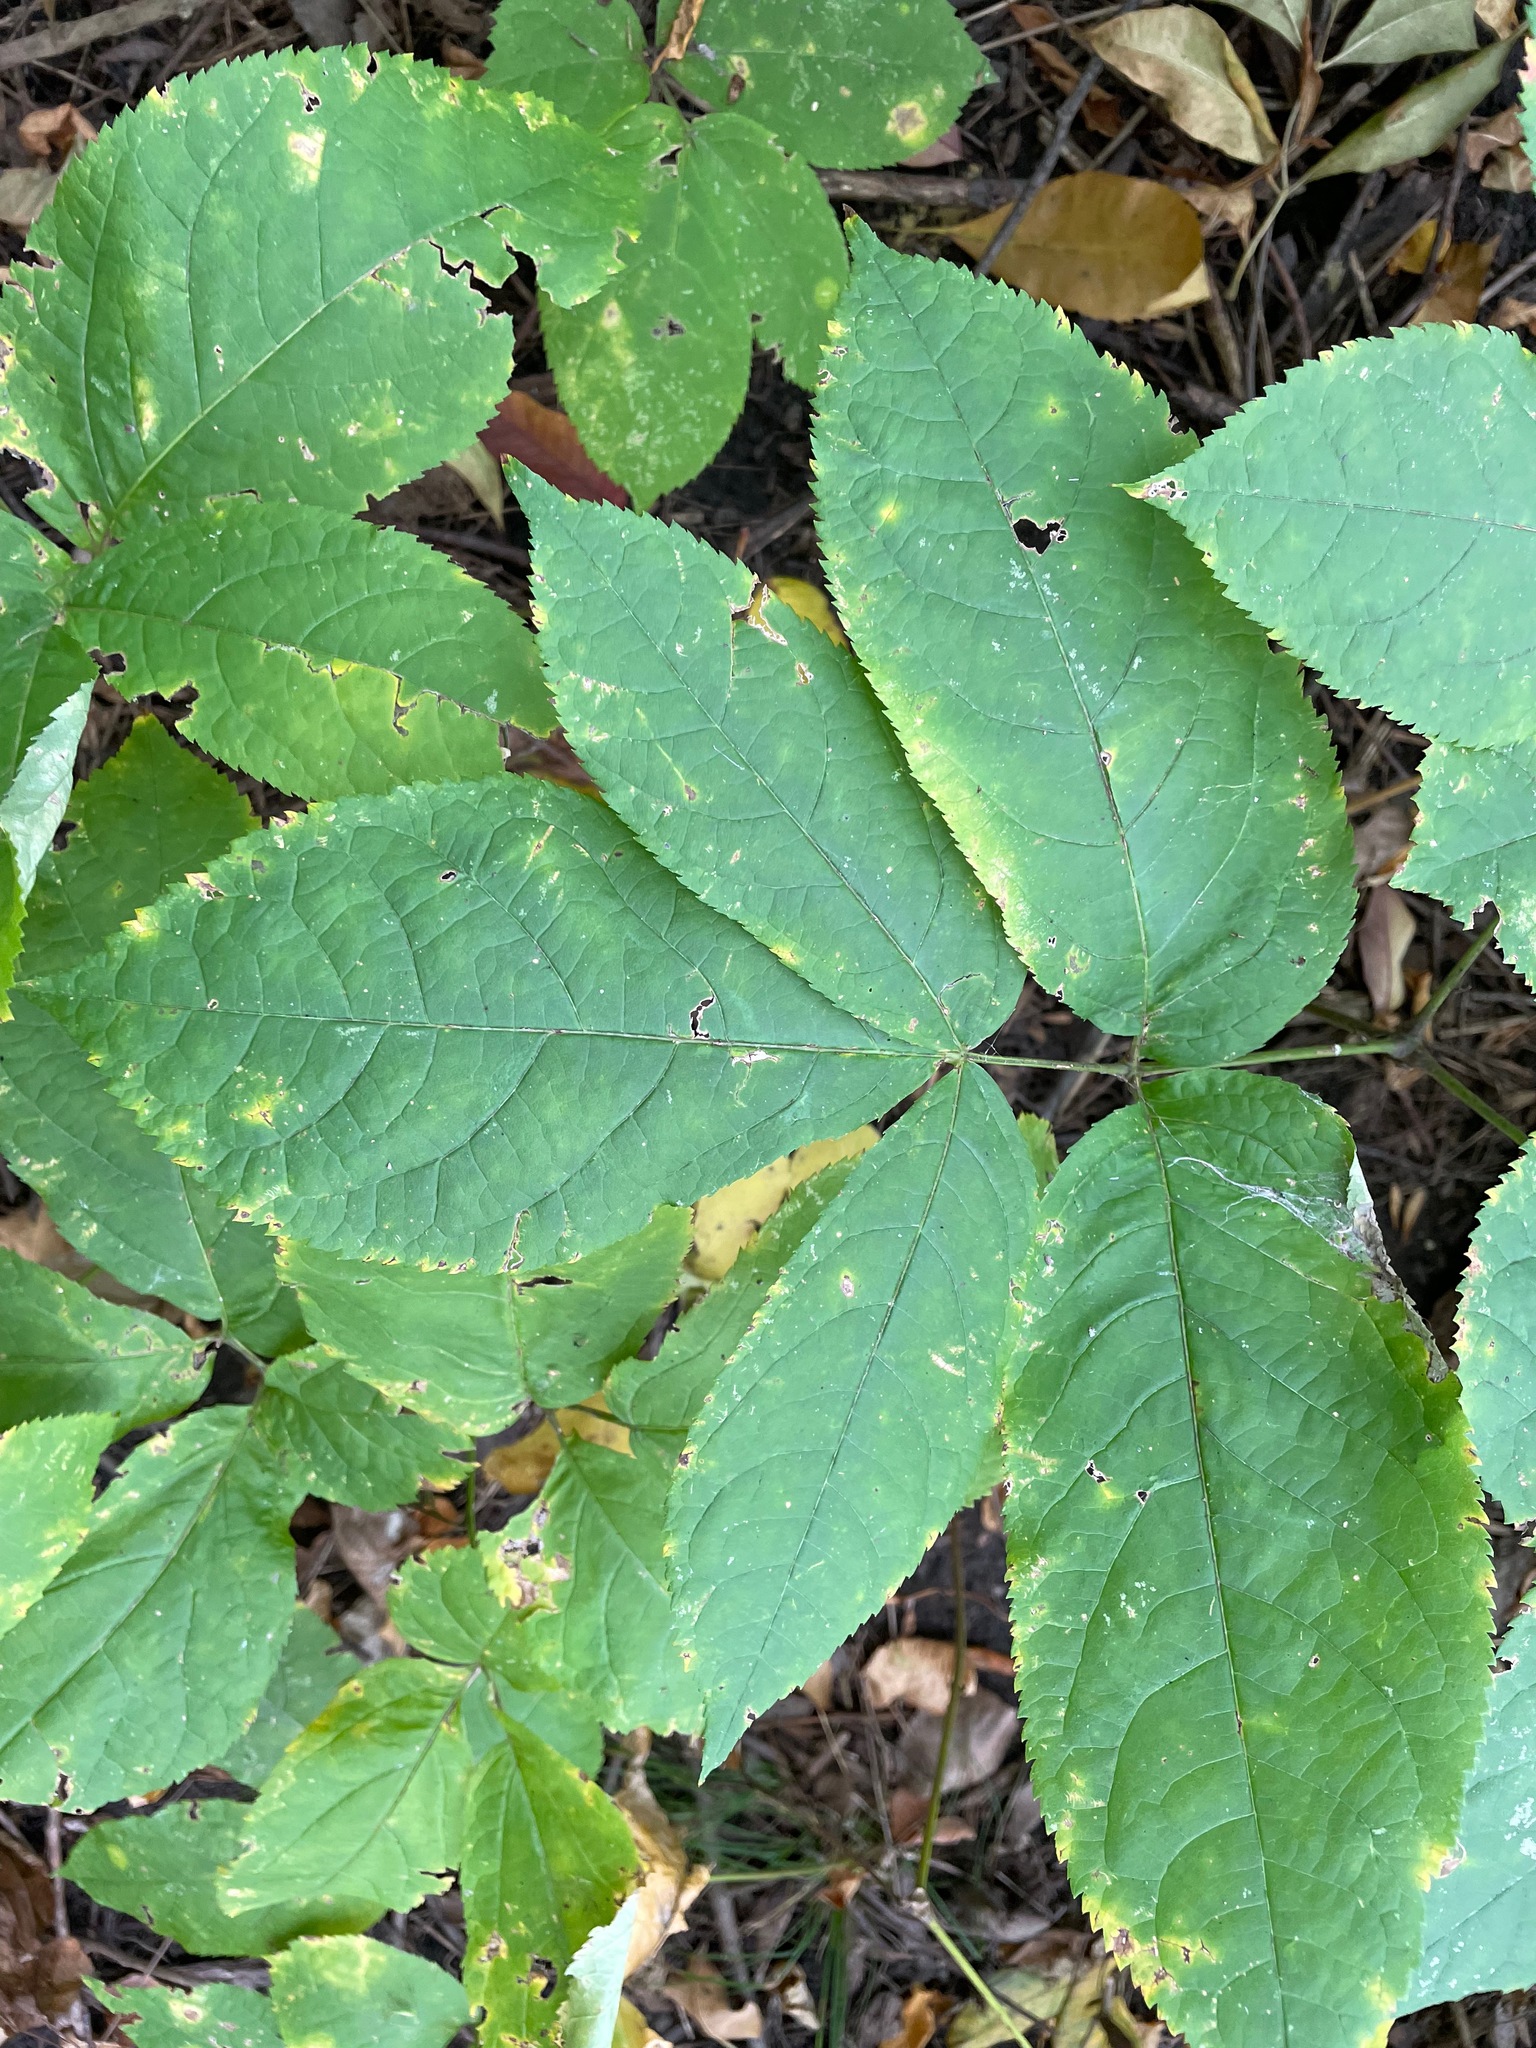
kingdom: Plantae
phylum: Tracheophyta
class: Magnoliopsida
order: Apiales
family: Araliaceae
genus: Aralia
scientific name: Aralia nudicaulis
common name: Wild sarsaparilla
